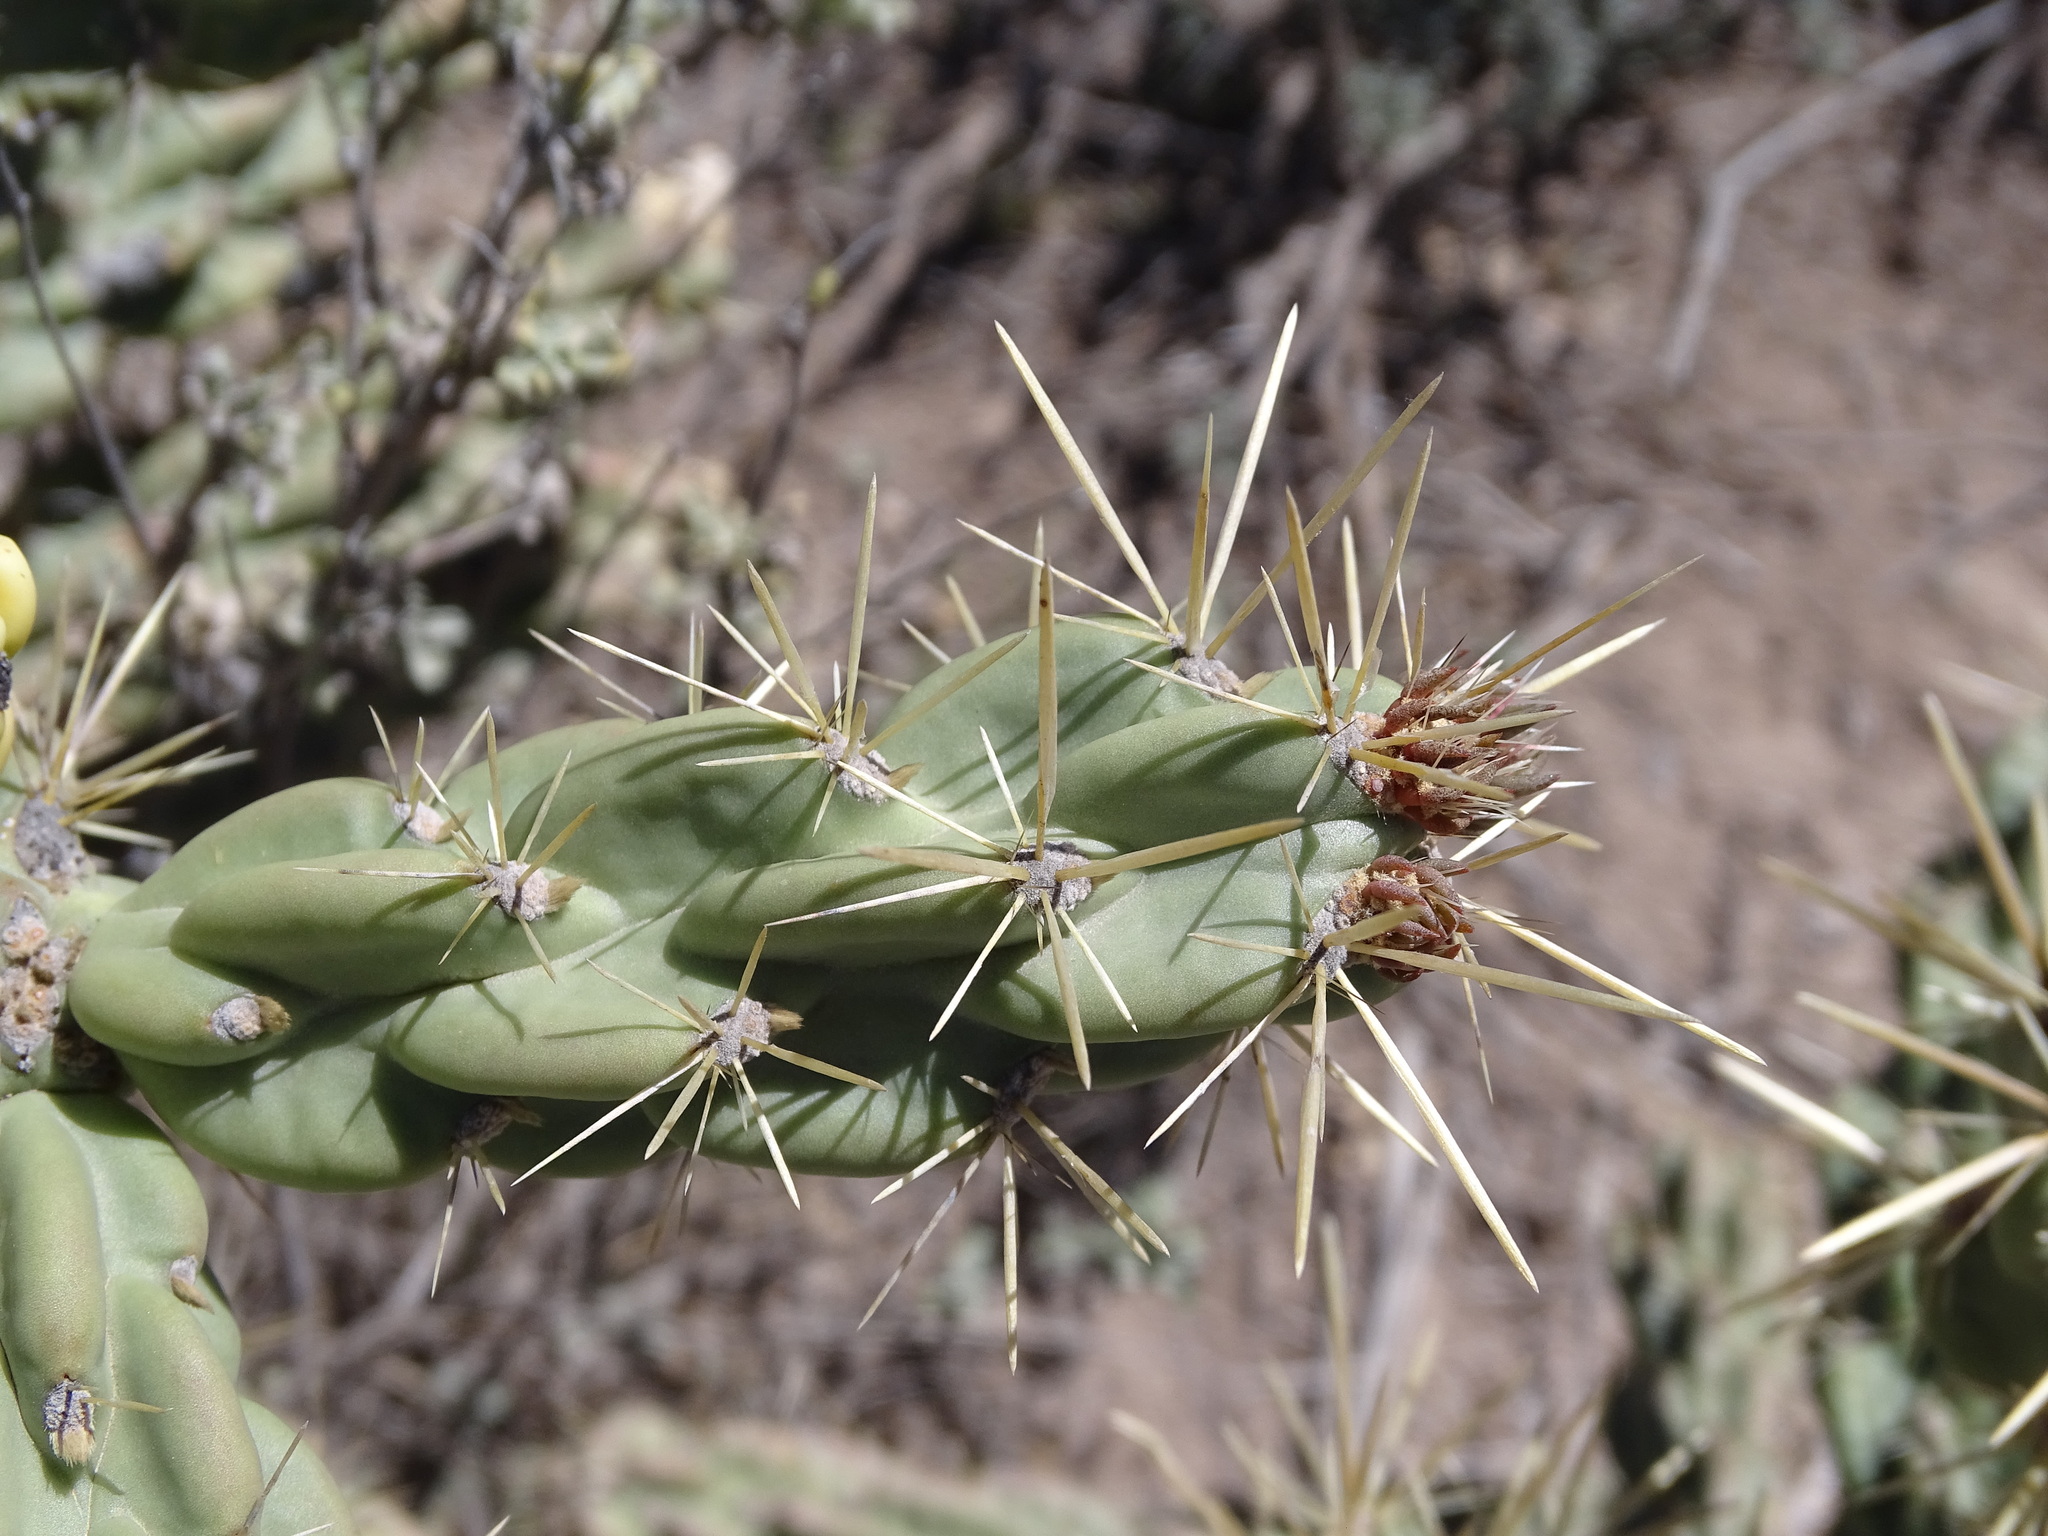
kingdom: Plantae
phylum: Tracheophyta
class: Magnoliopsida
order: Caryophyllales
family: Cactaceae
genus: Cylindropuntia
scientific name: Cylindropuntia imbricata
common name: Candelabrum cactus
